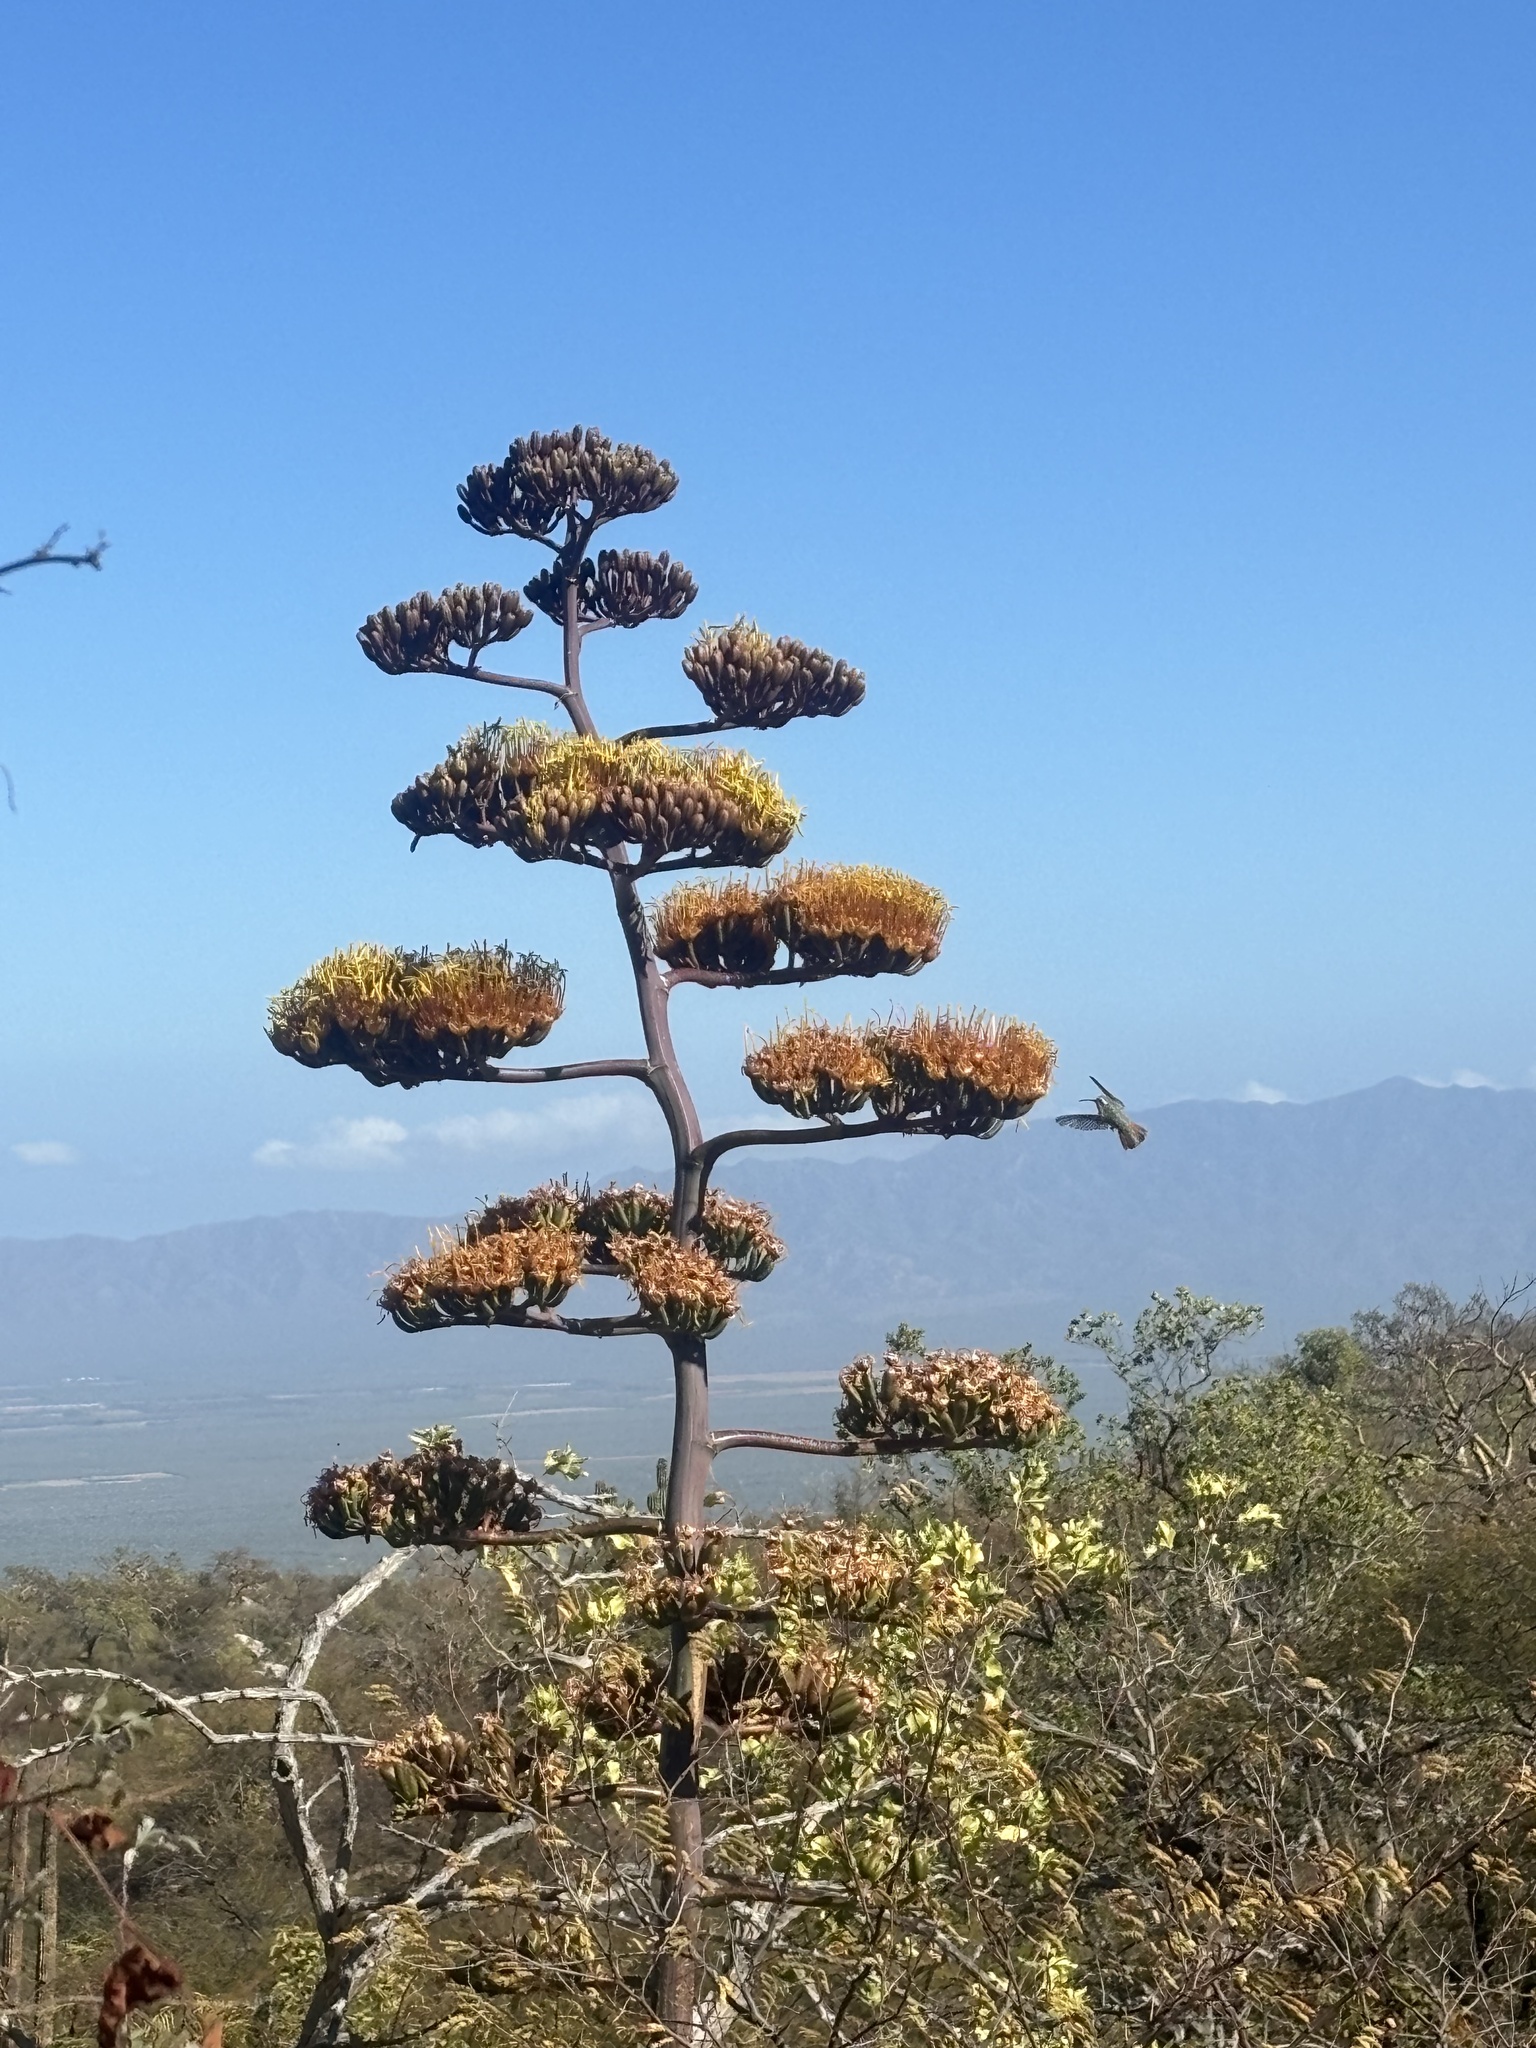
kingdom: Plantae
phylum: Tracheophyta
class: Liliopsida
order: Asparagales
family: Asparagaceae
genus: Agave
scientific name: Agave aurea
